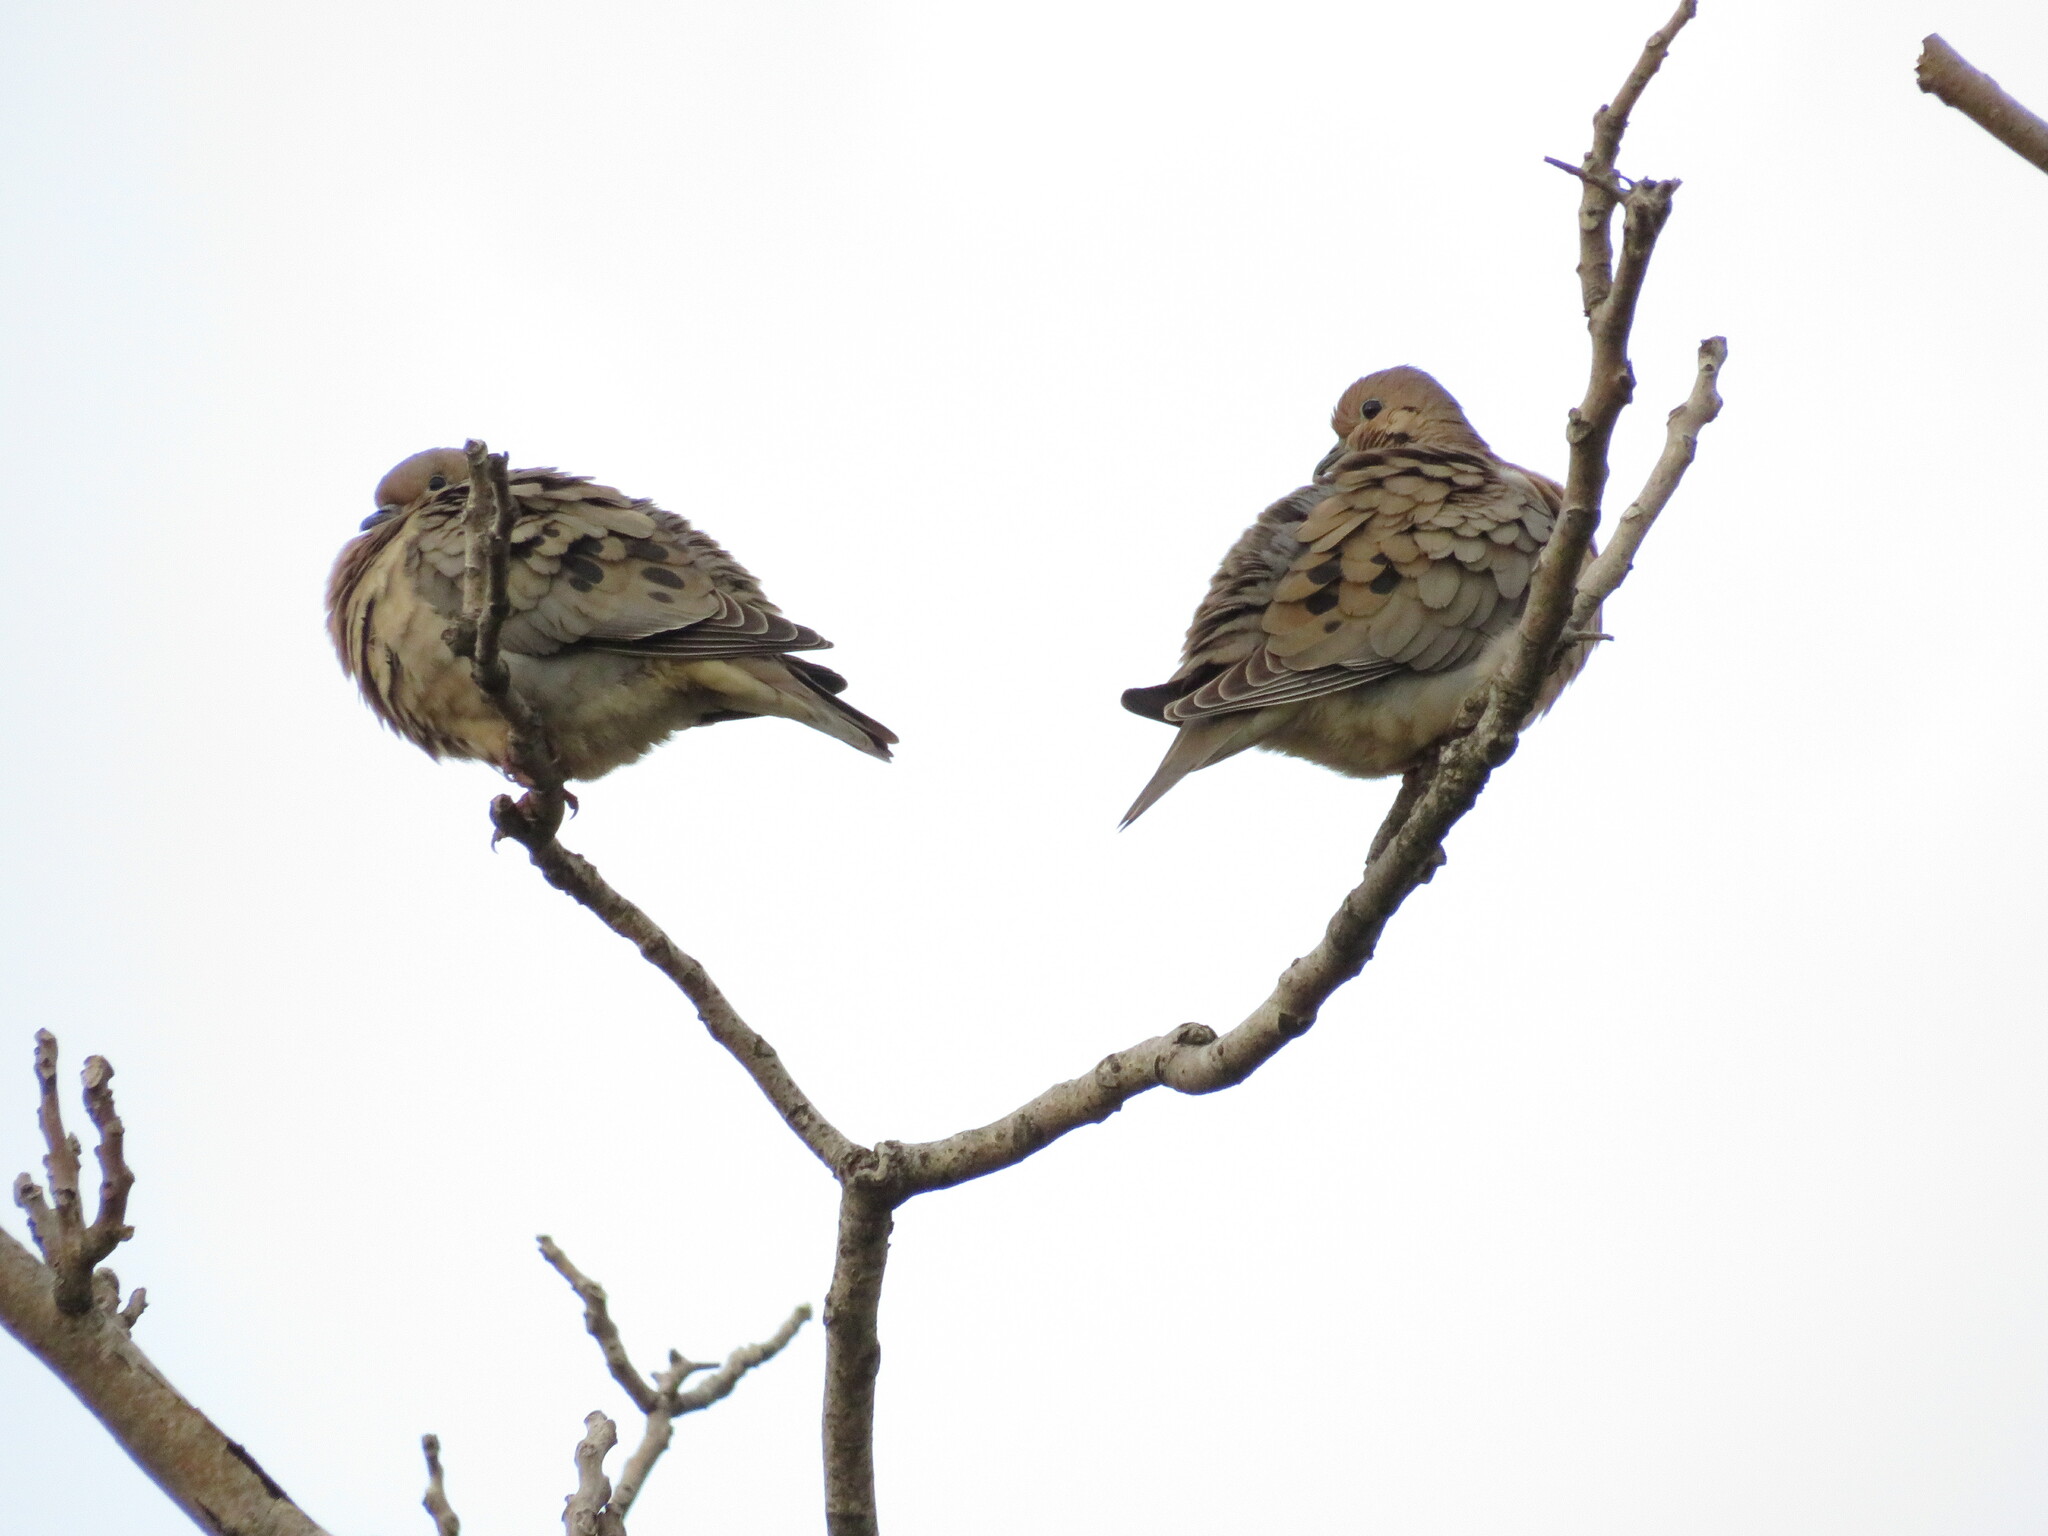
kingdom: Animalia
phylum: Chordata
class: Aves
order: Columbiformes
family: Columbidae
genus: Zenaida
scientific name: Zenaida auriculata
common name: Eared dove
